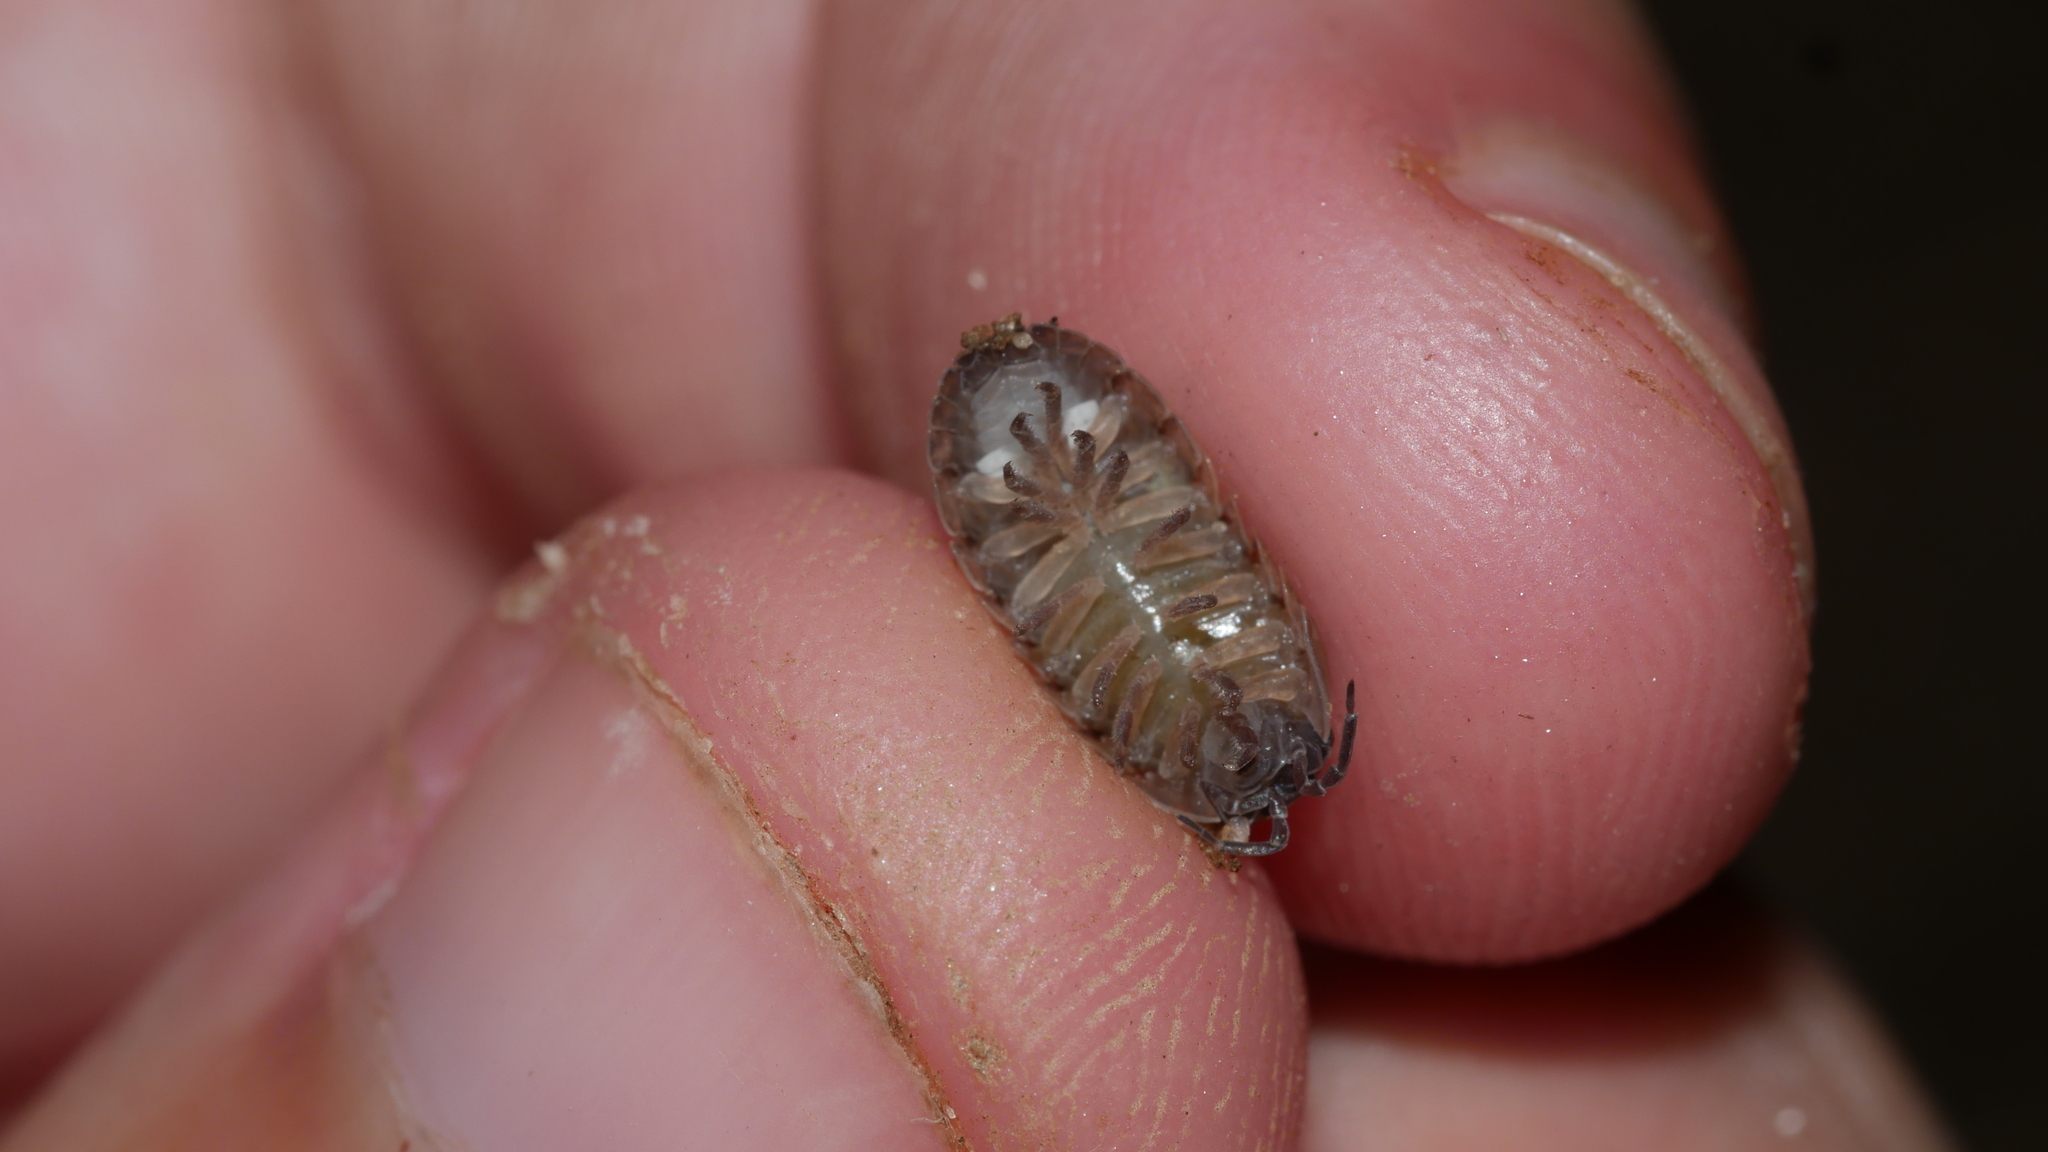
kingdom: Animalia
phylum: Arthropoda
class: Malacostraca
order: Isopoda
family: Armadillidiidae
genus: Armadillidium
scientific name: Armadillidium vulgare
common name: Common pill woodlouse
